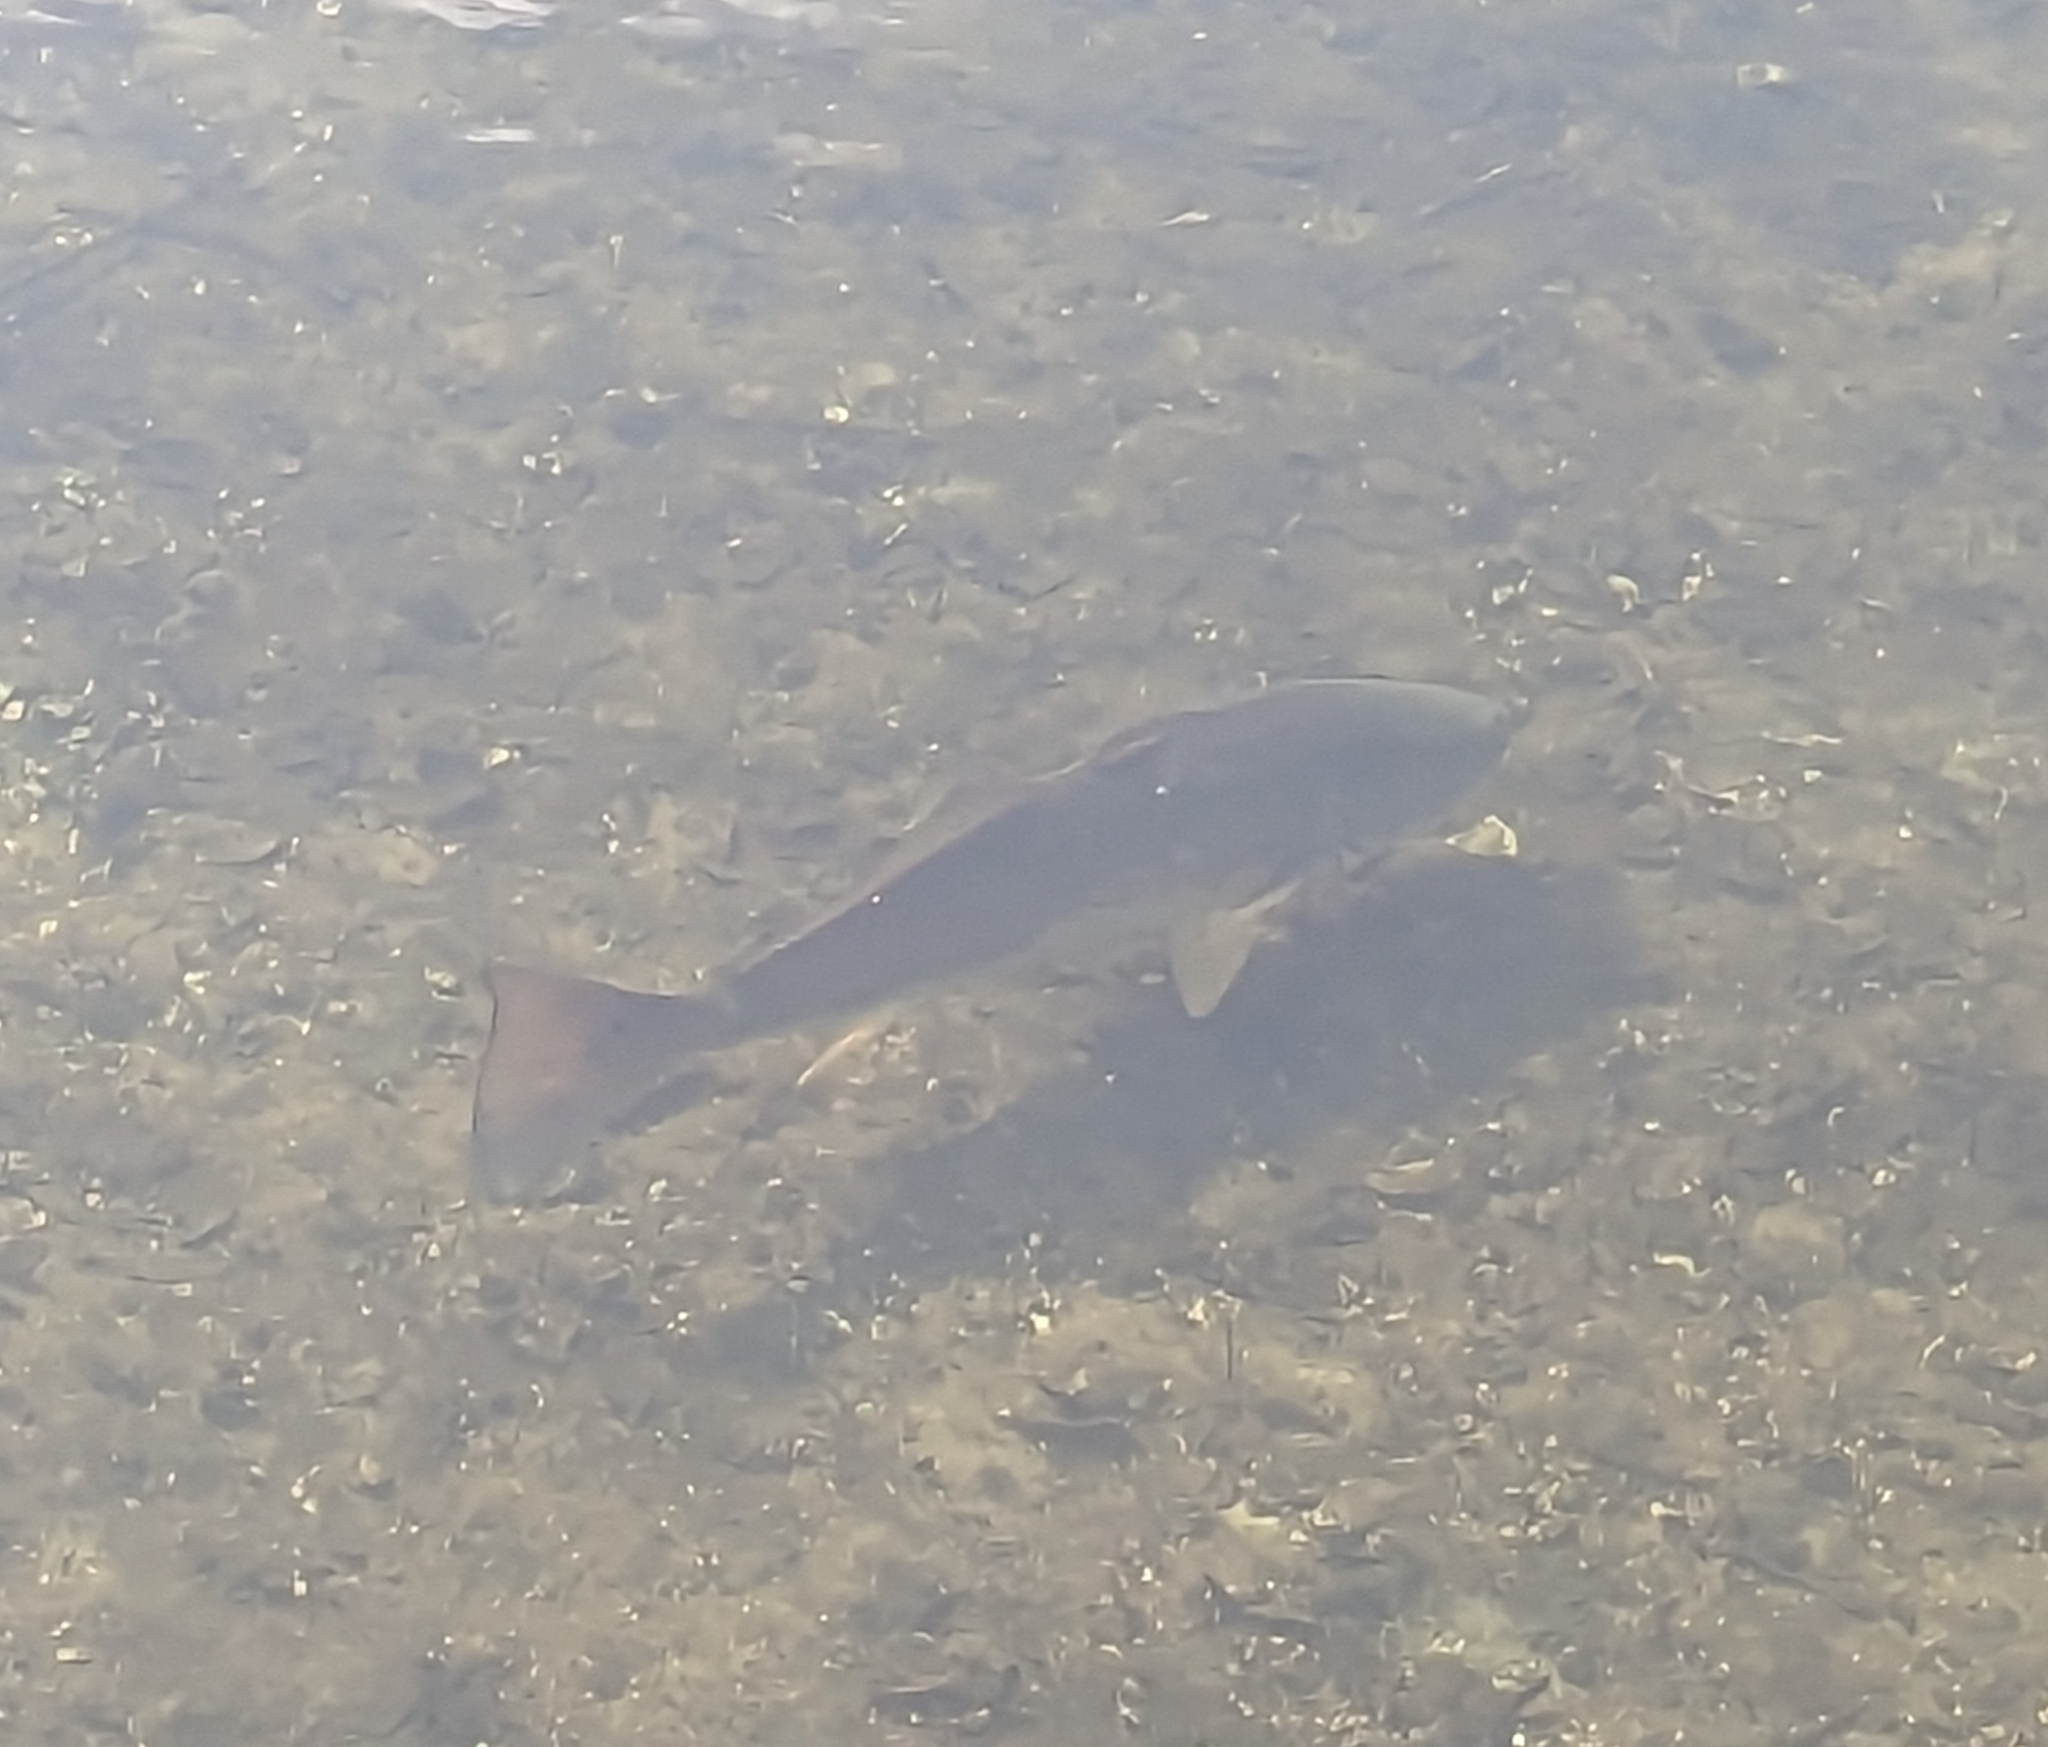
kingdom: Animalia
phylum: Chordata
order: Perciformes
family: Sciaenidae
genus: Sciaenops
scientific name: Sciaenops ocellatus
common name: Red drum
